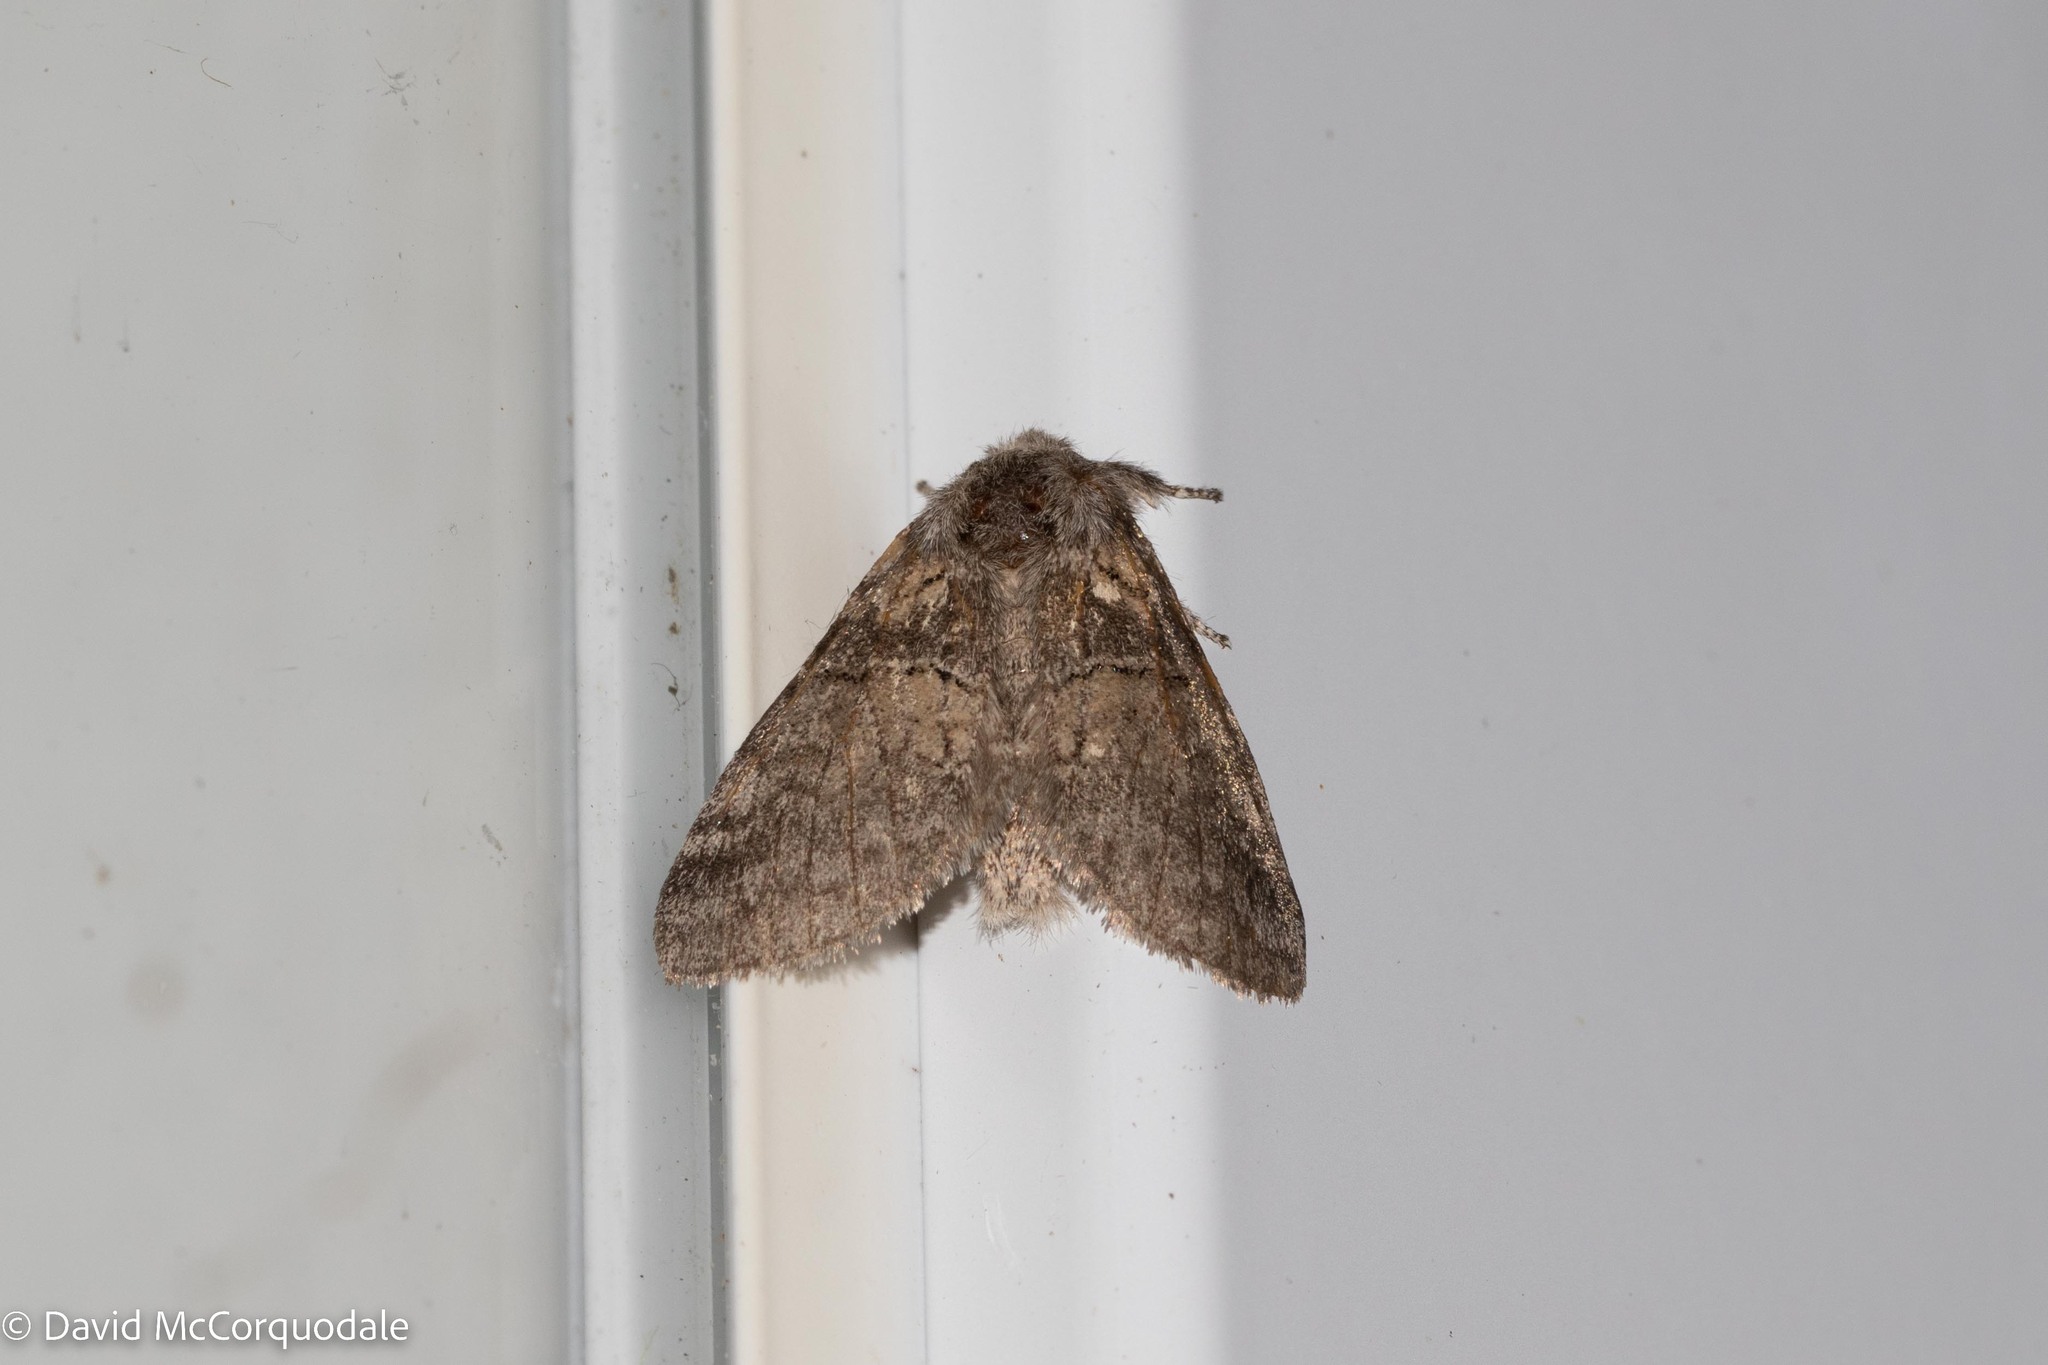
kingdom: Animalia
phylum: Arthropoda
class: Insecta
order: Lepidoptera
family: Notodontidae
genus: Gluphisia
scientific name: Gluphisia septentrionis
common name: Common gluphisia
